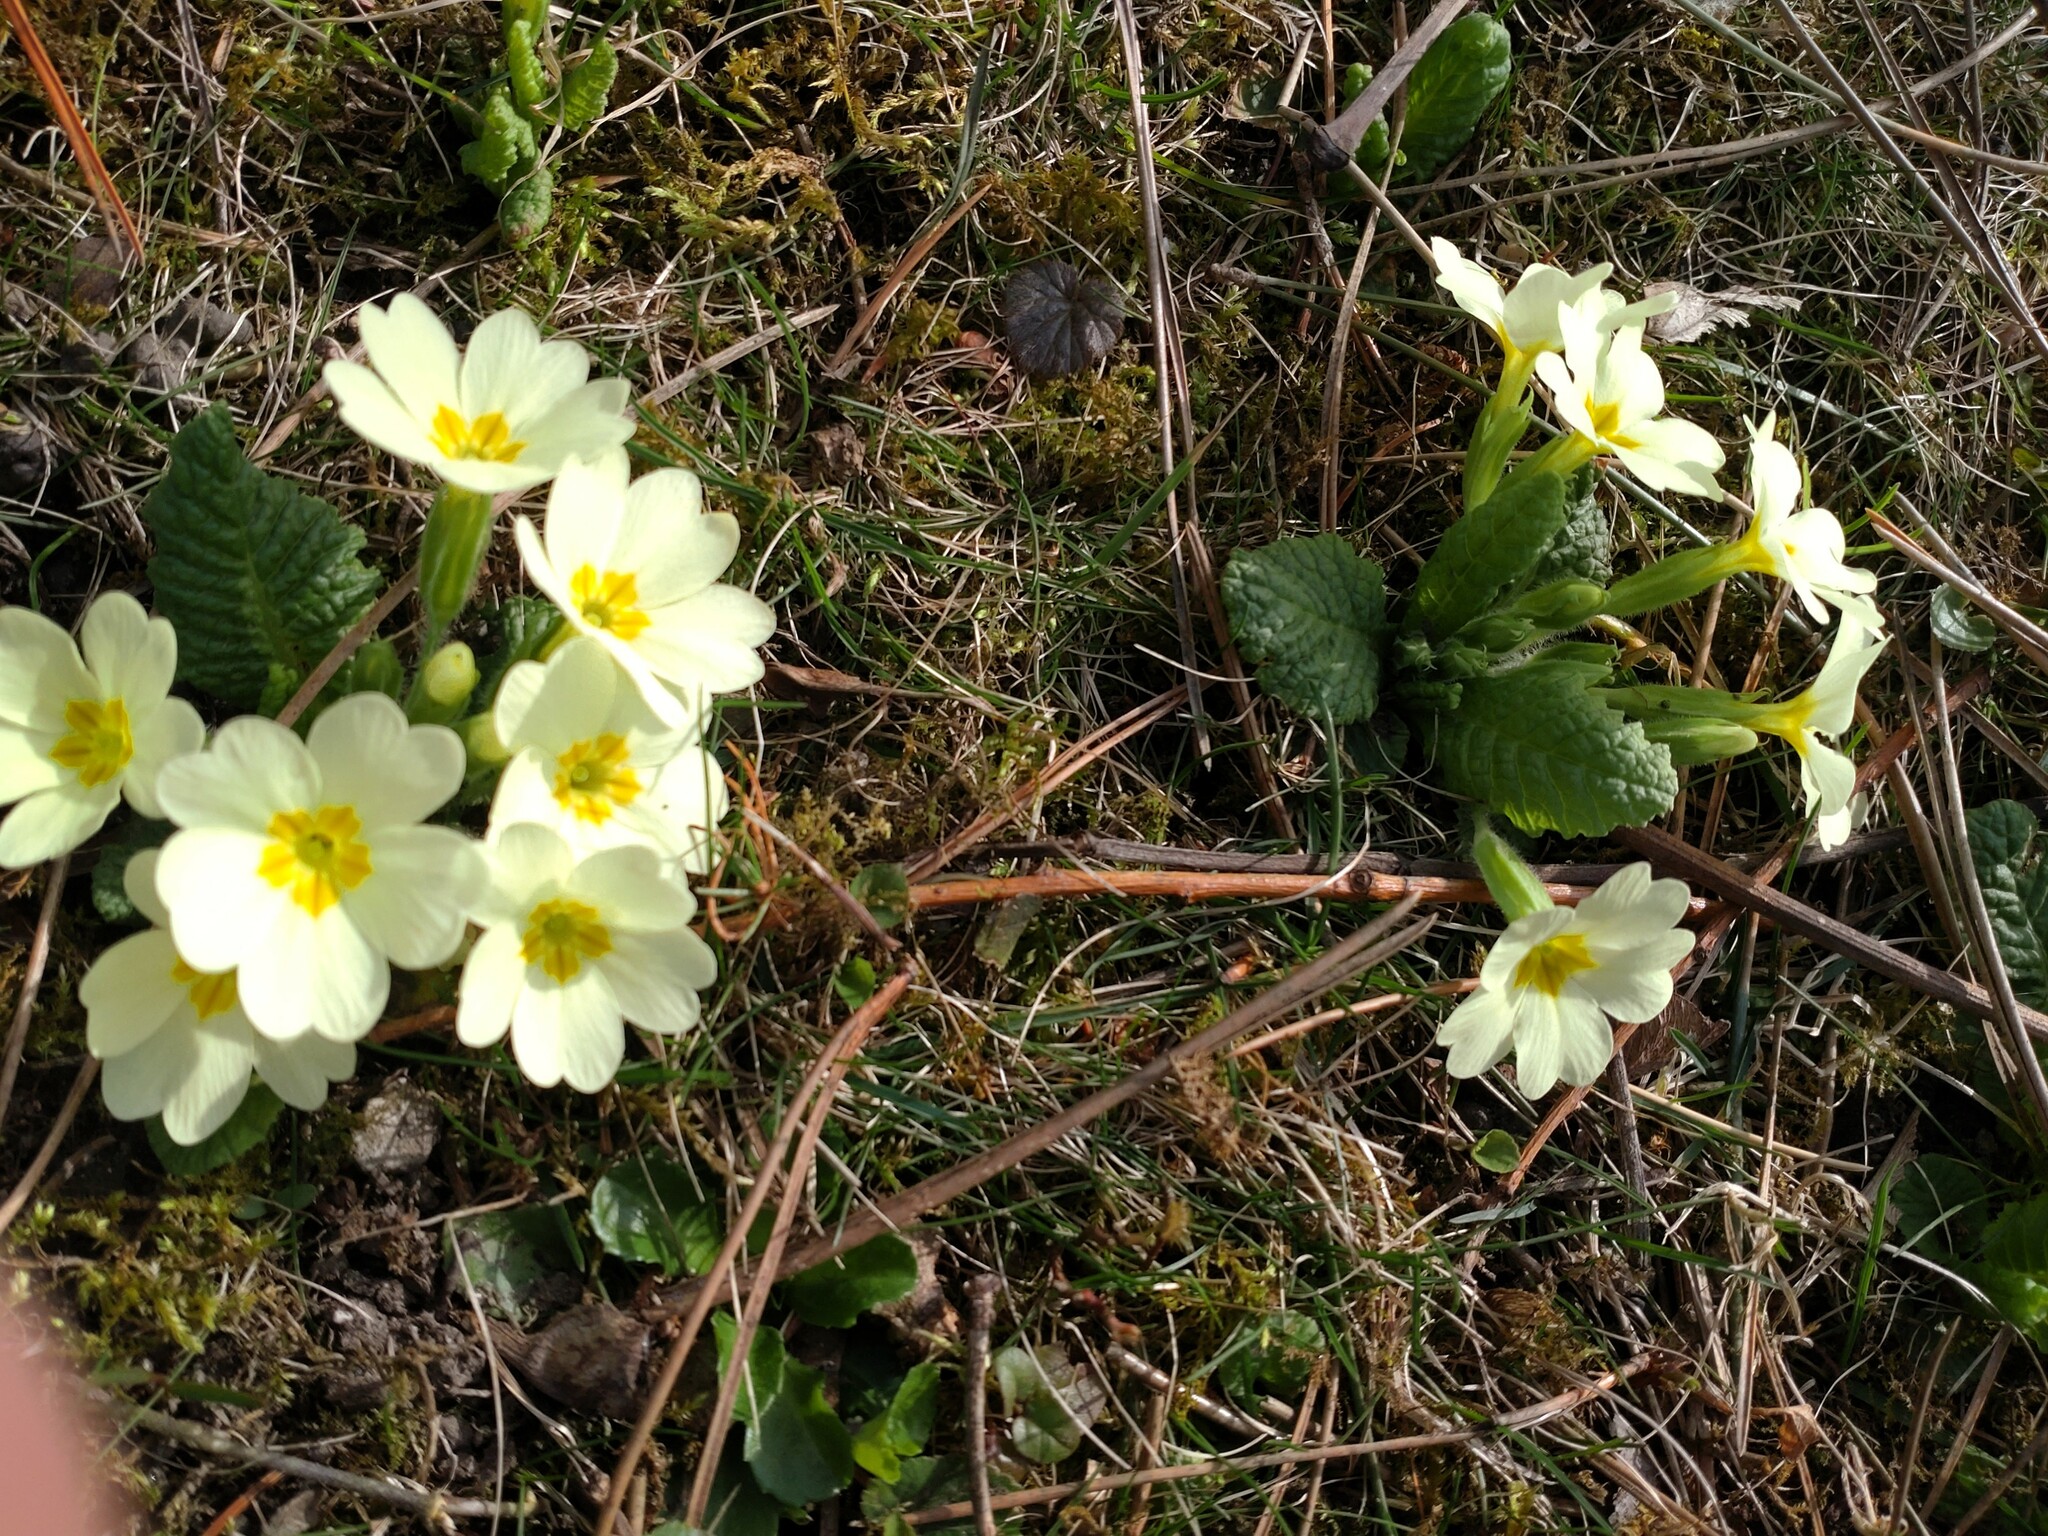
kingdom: Plantae
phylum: Tracheophyta
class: Magnoliopsida
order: Ericales
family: Primulaceae
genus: Primula
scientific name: Primula vulgaris
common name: Primrose
